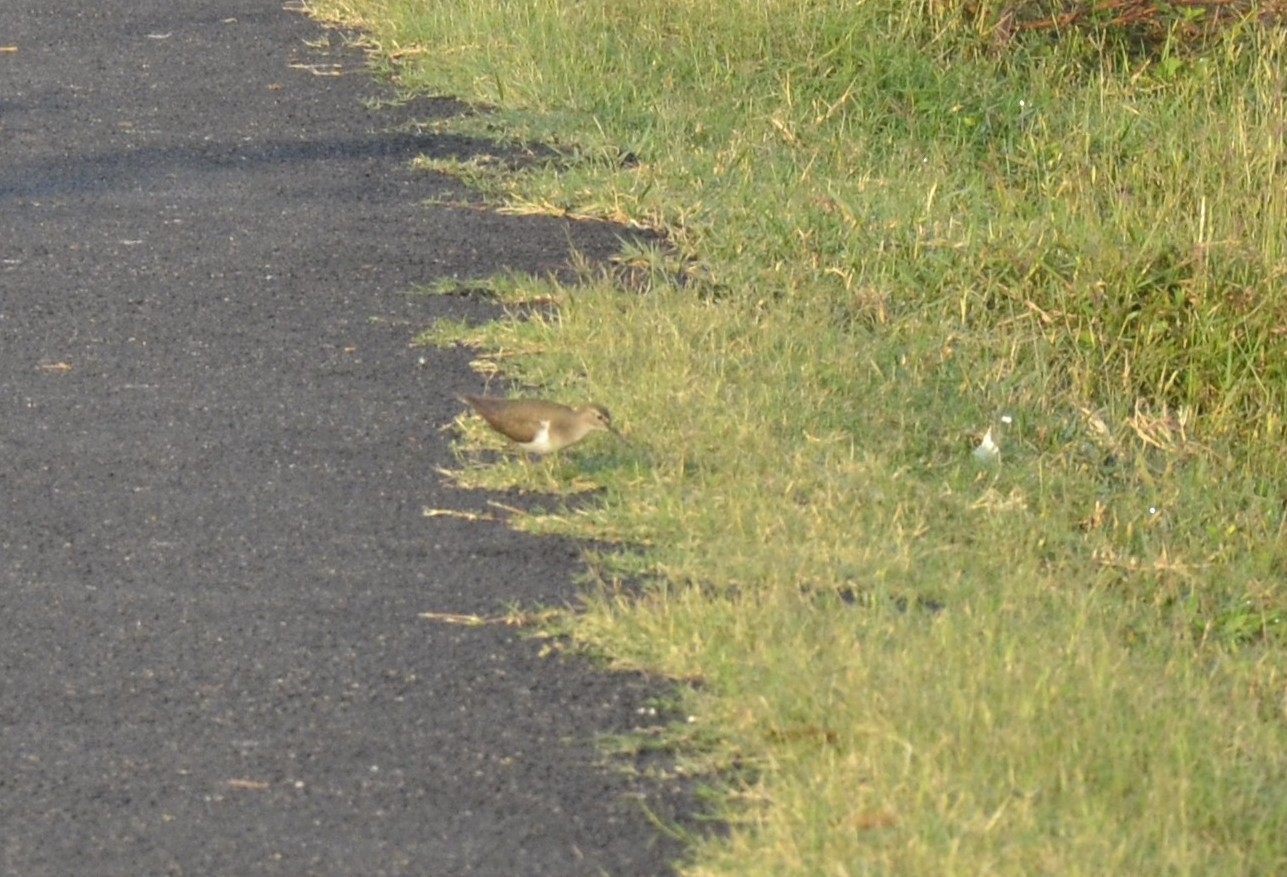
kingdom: Animalia
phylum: Chordata
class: Aves
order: Charadriiformes
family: Scolopacidae
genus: Actitis
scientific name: Actitis hypoleucos
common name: Common sandpiper
